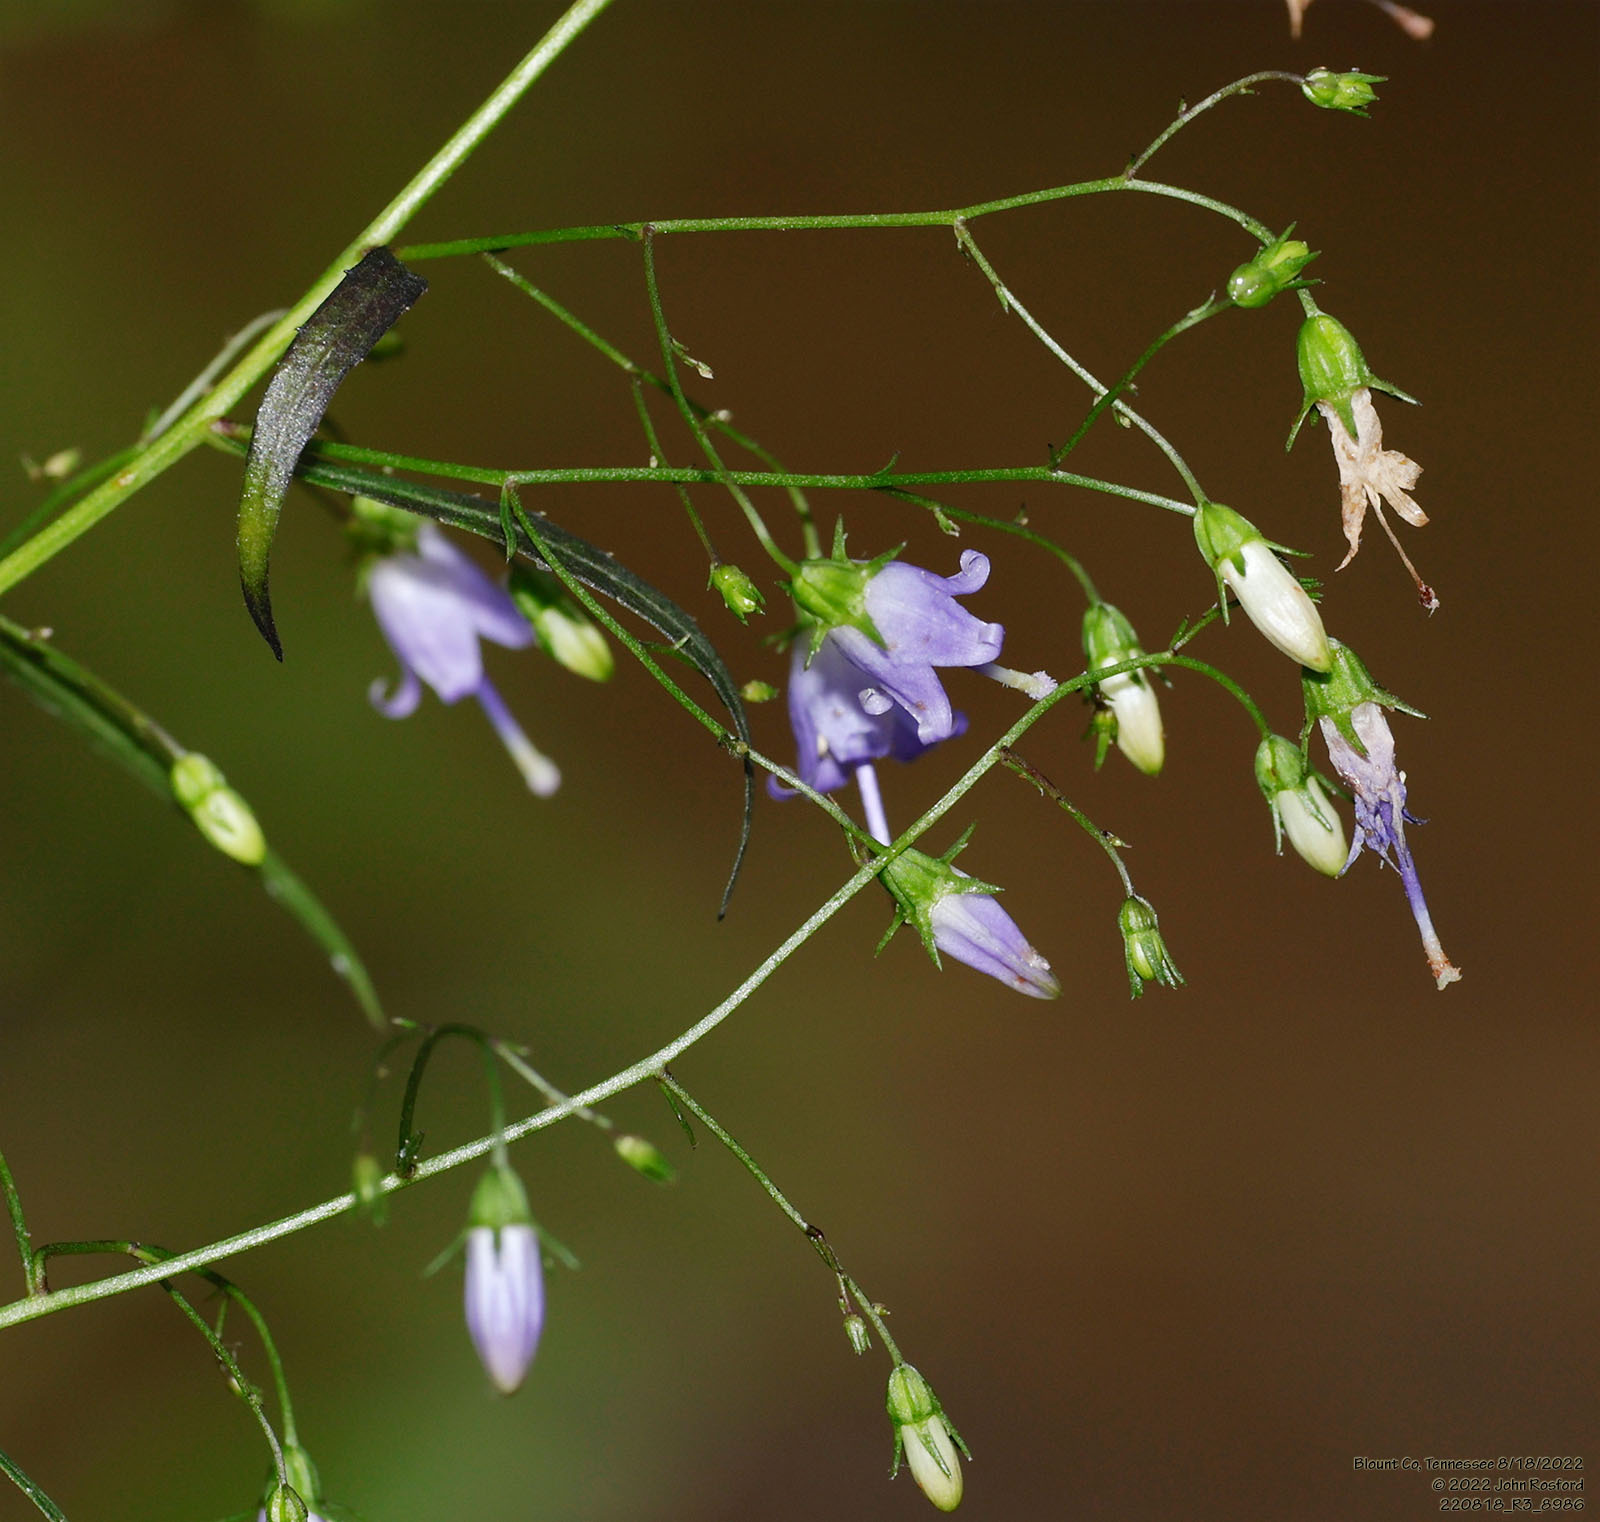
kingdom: Plantae
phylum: Tracheophyta
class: Magnoliopsida
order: Asterales
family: Campanulaceae
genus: Campanula
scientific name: Campanula divaricata
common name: Appalachian bellflower
